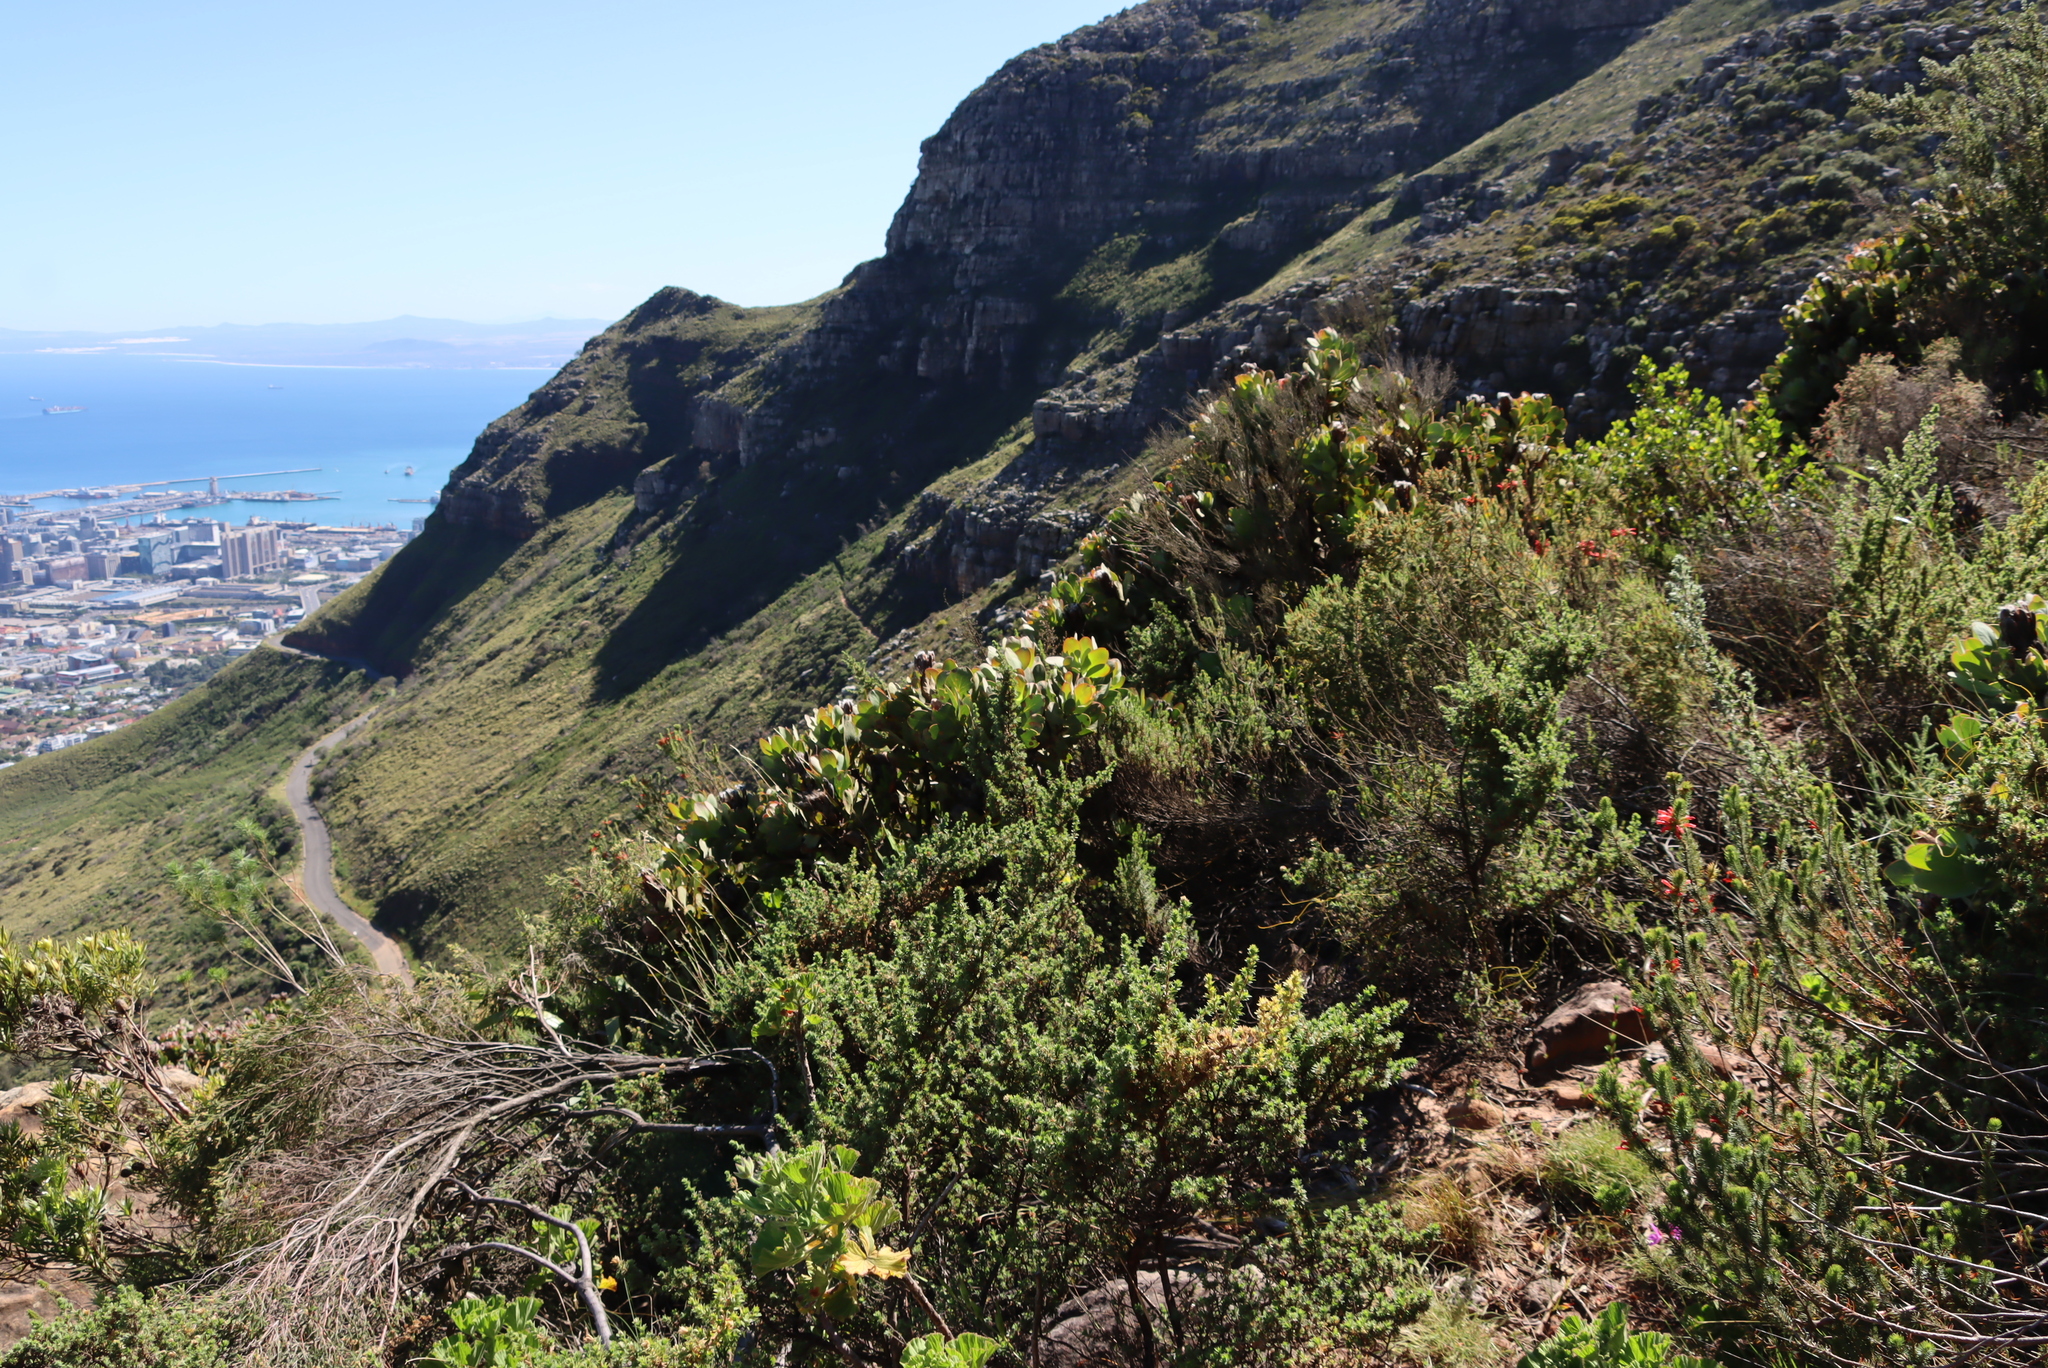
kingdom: Plantae
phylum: Tracheophyta
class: Magnoliopsida
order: Proteales
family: Proteaceae
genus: Protea
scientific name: Protea grandiceps
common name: Red sugarbush
